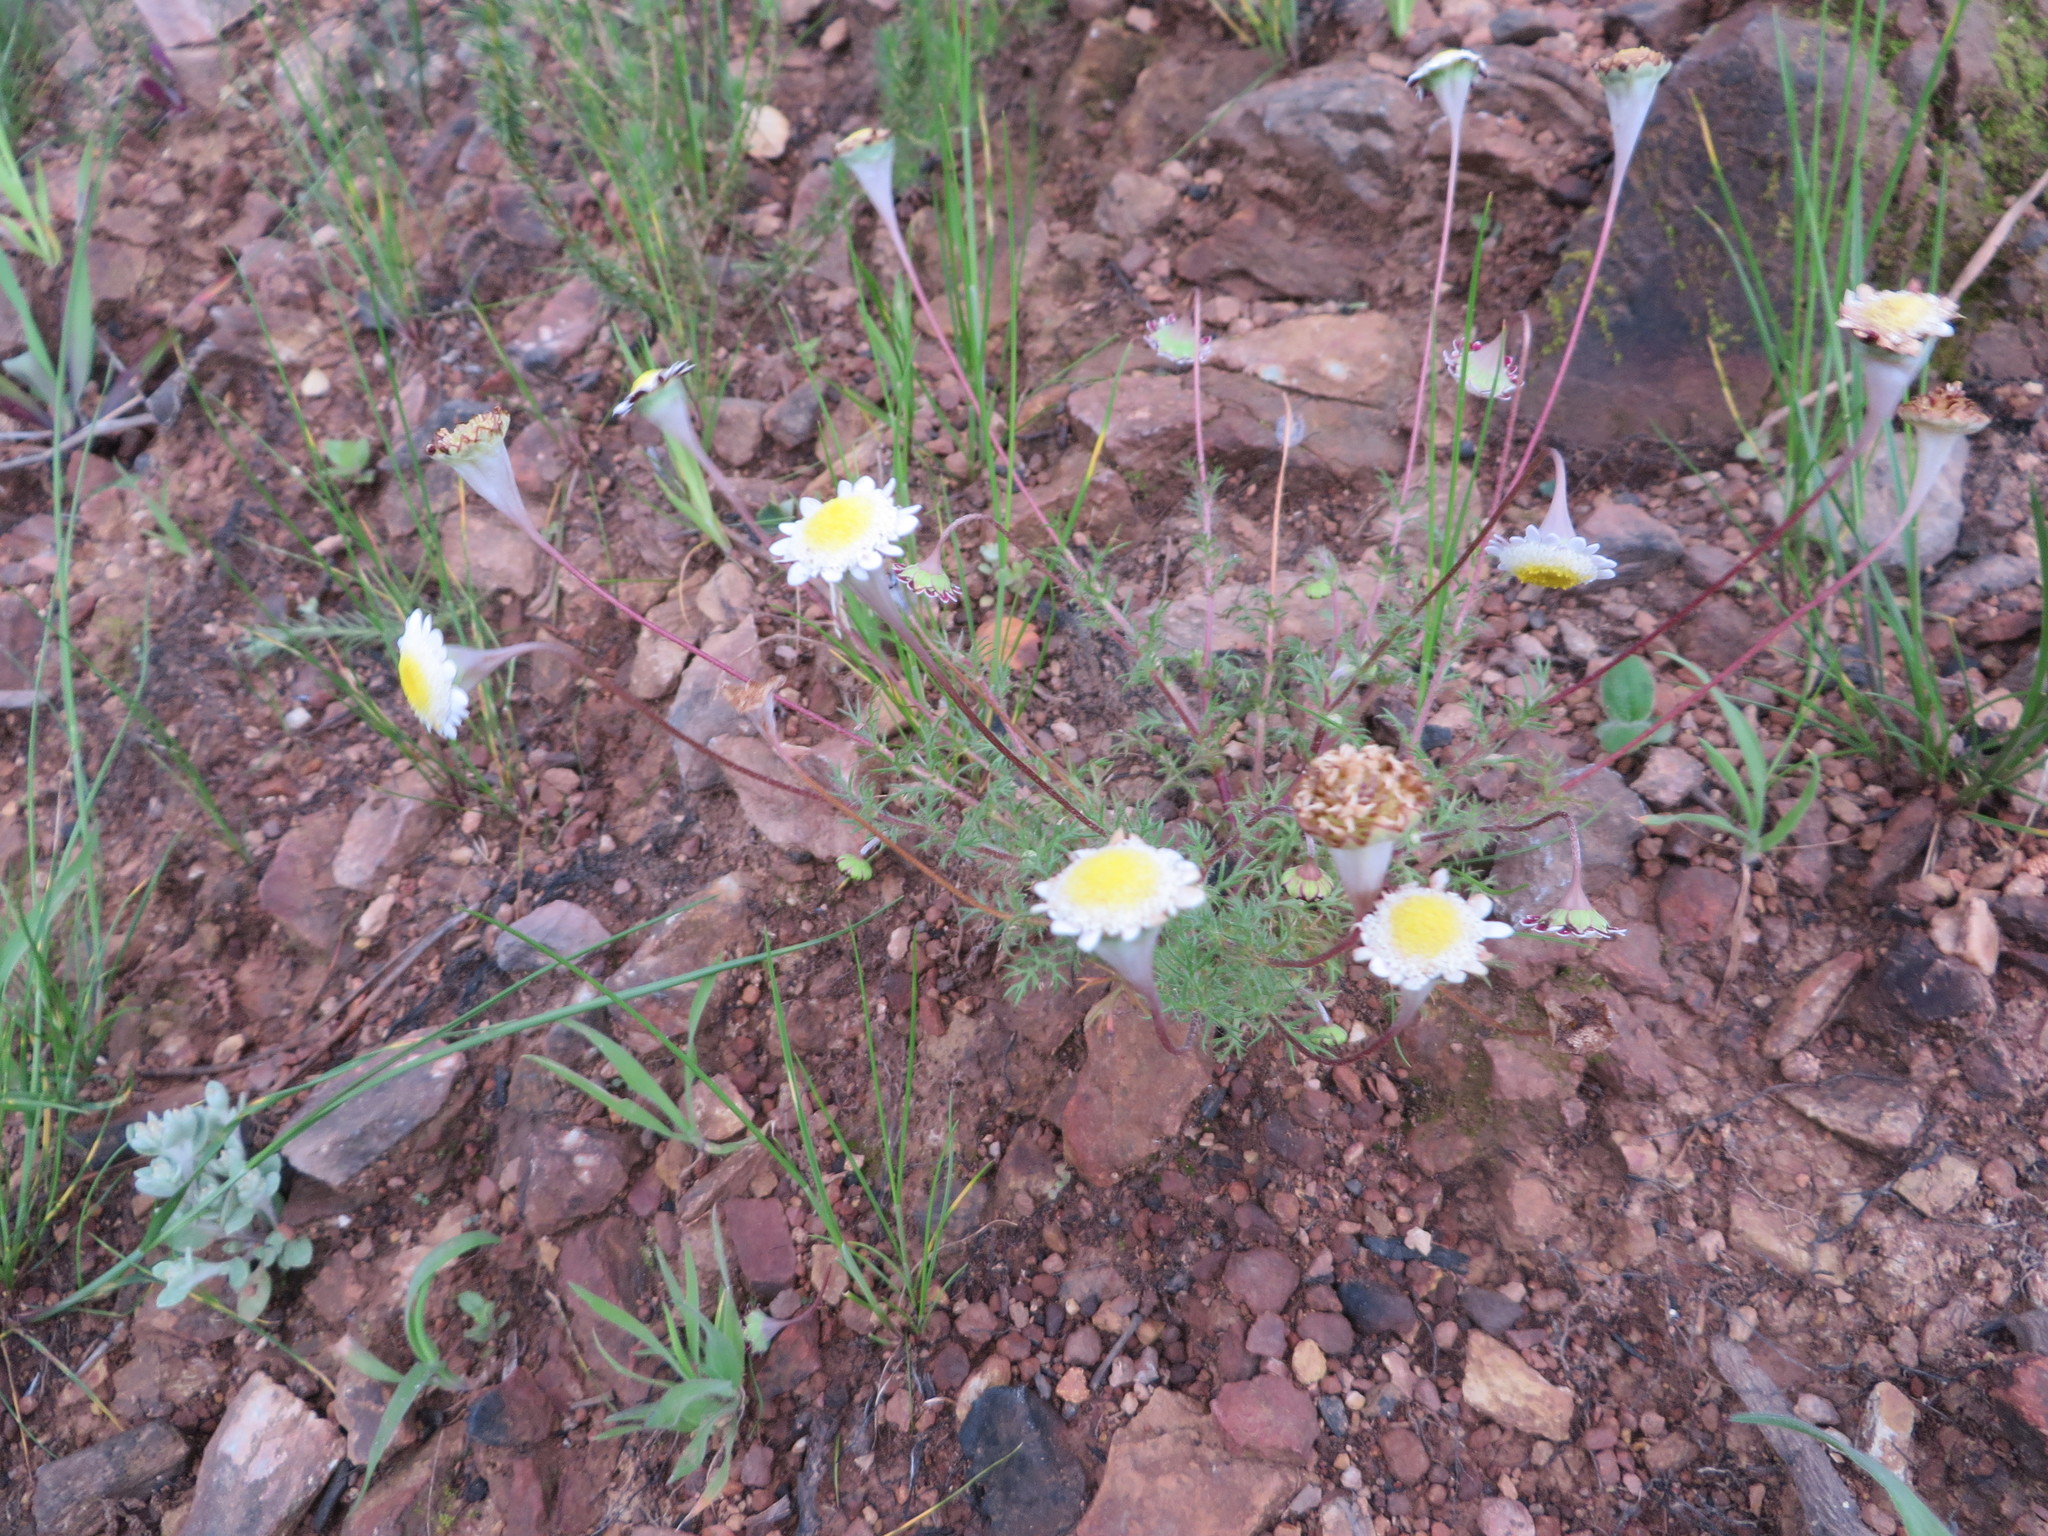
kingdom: Plantae
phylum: Tracheophyta
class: Magnoliopsida
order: Asterales
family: Asteraceae
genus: Cotula
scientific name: Cotula turbinata
